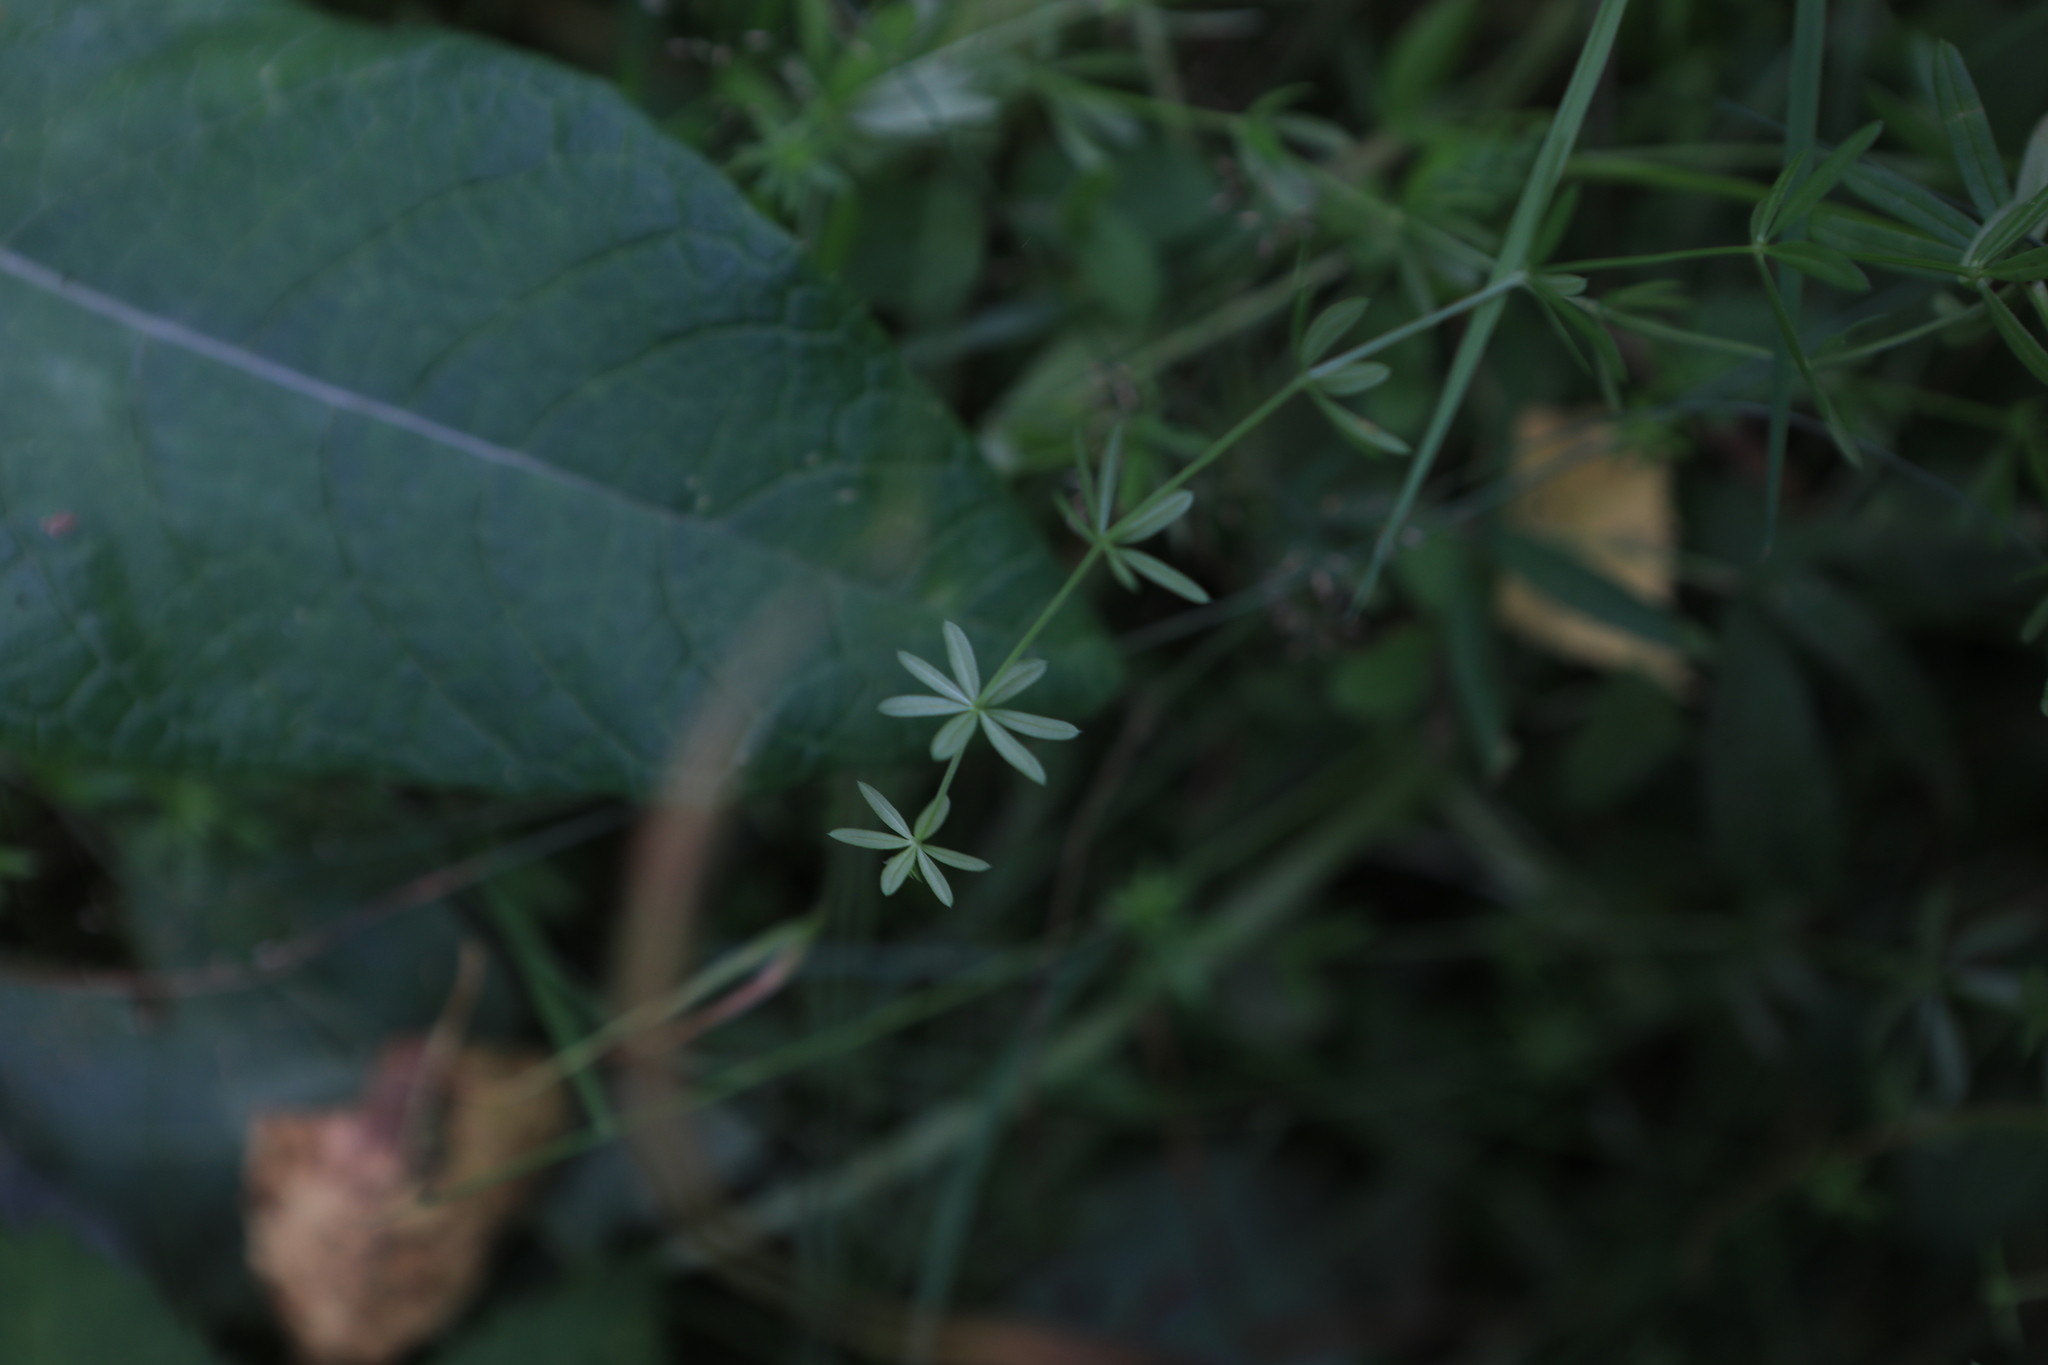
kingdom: Plantae
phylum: Tracheophyta
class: Magnoliopsida
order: Gentianales
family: Rubiaceae
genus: Galium
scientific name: Galium trifidum
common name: Small bedstraw
